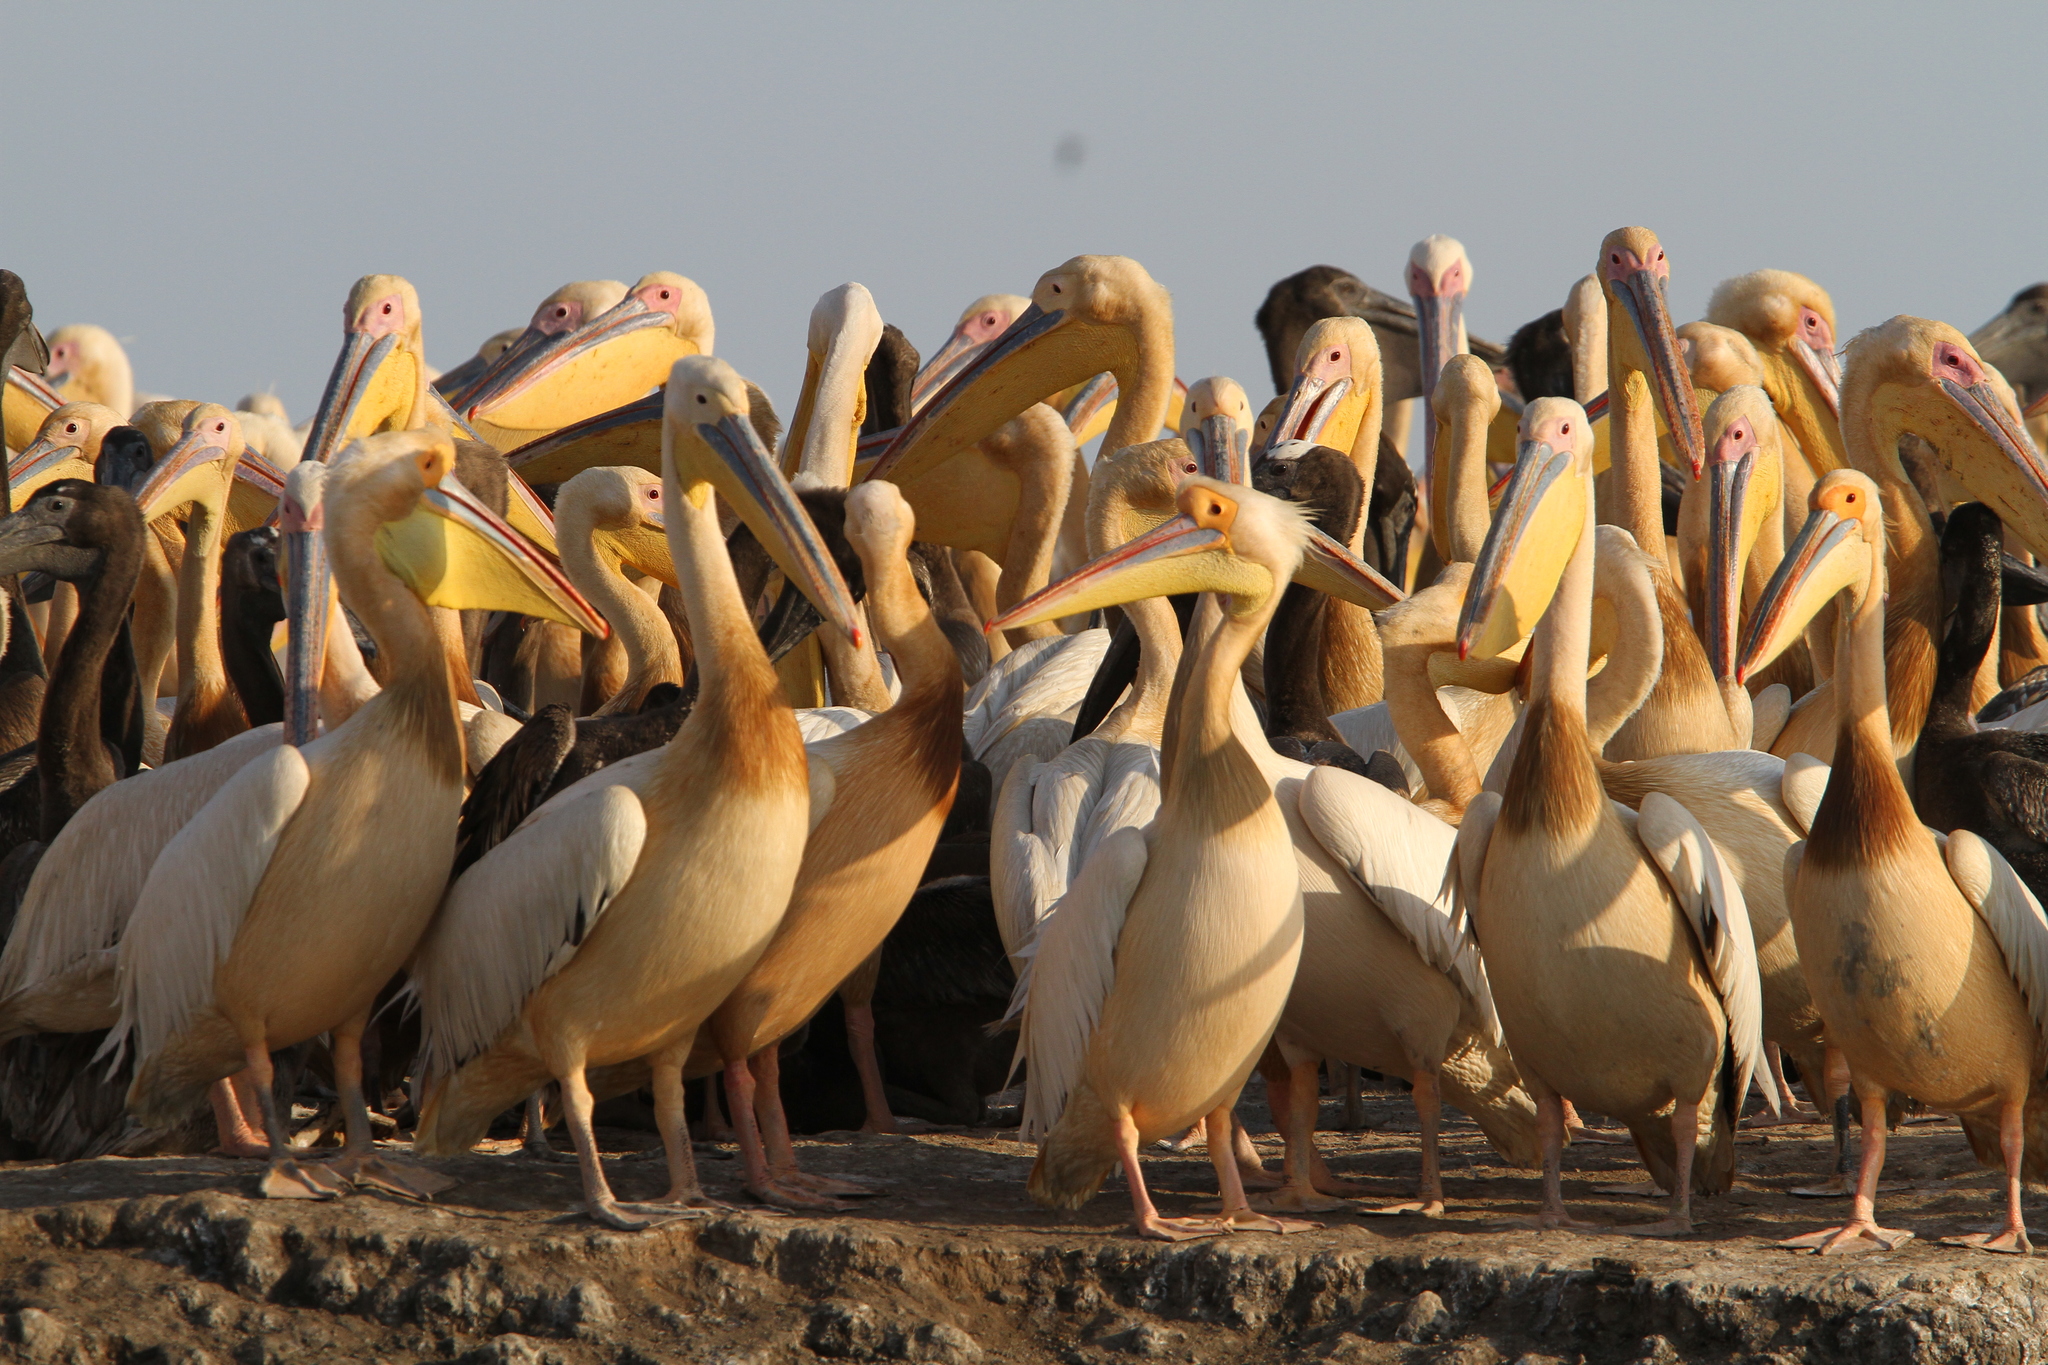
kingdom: Animalia
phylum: Chordata
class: Aves
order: Pelecaniformes
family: Pelecanidae
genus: Pelecanus
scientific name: Pelecanus onocrotalus
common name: Great white pelican
